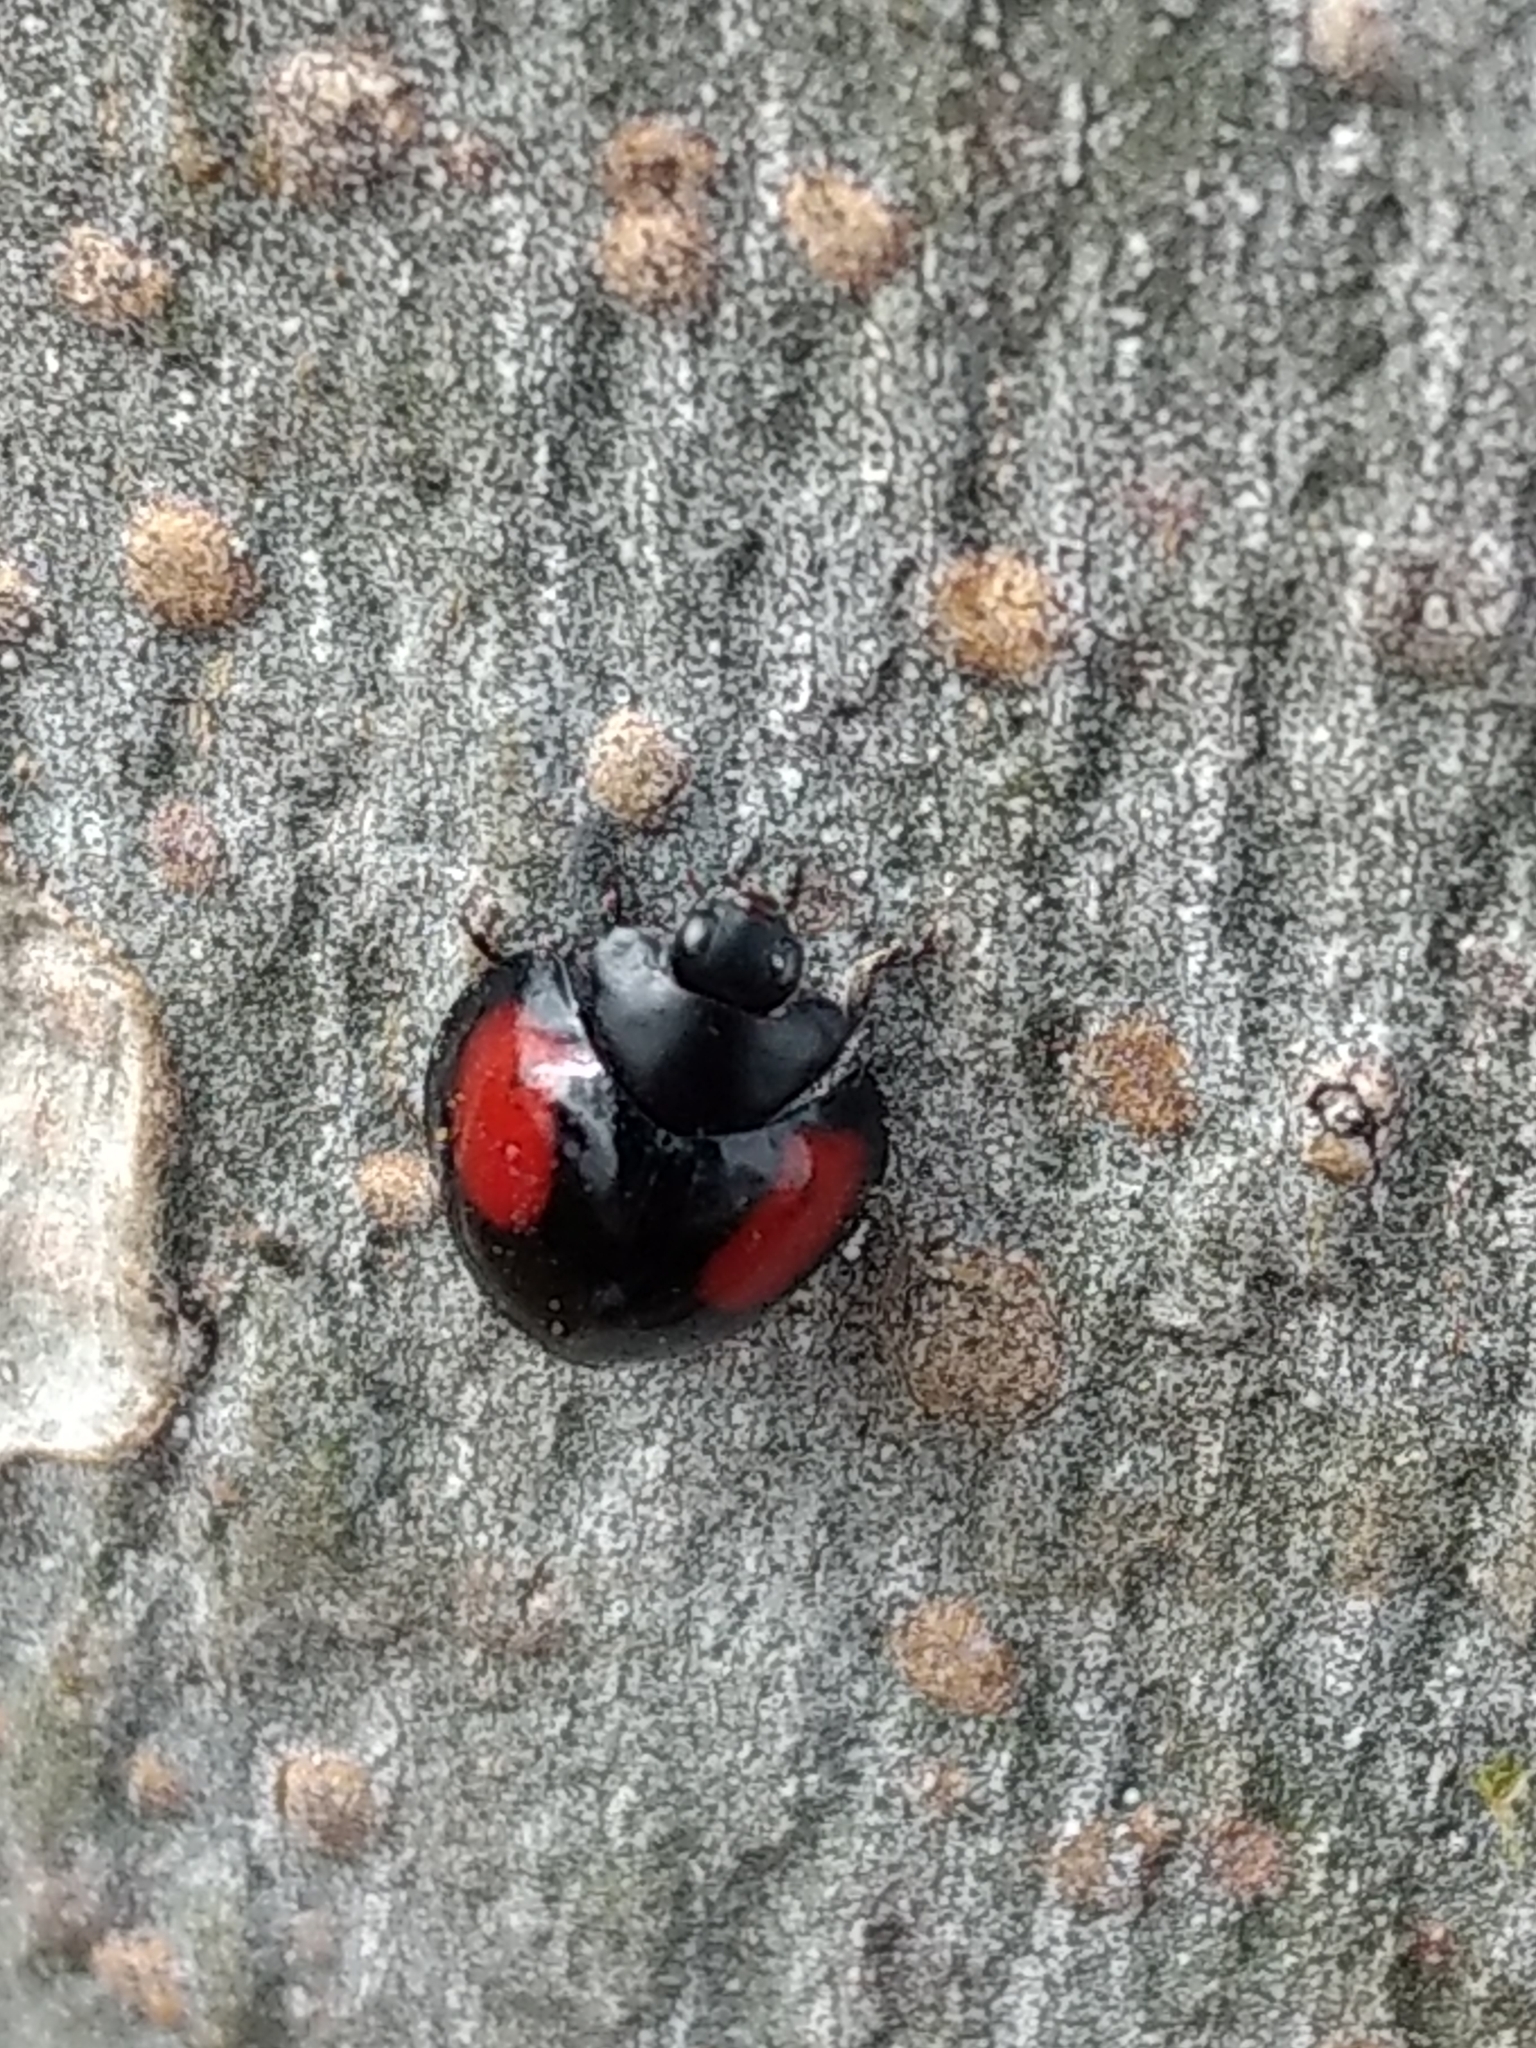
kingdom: Animalia
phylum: Arthropoda
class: Insecta
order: Coleoptera
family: Coccinellidae
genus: Axion
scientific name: Axion plagiatum
